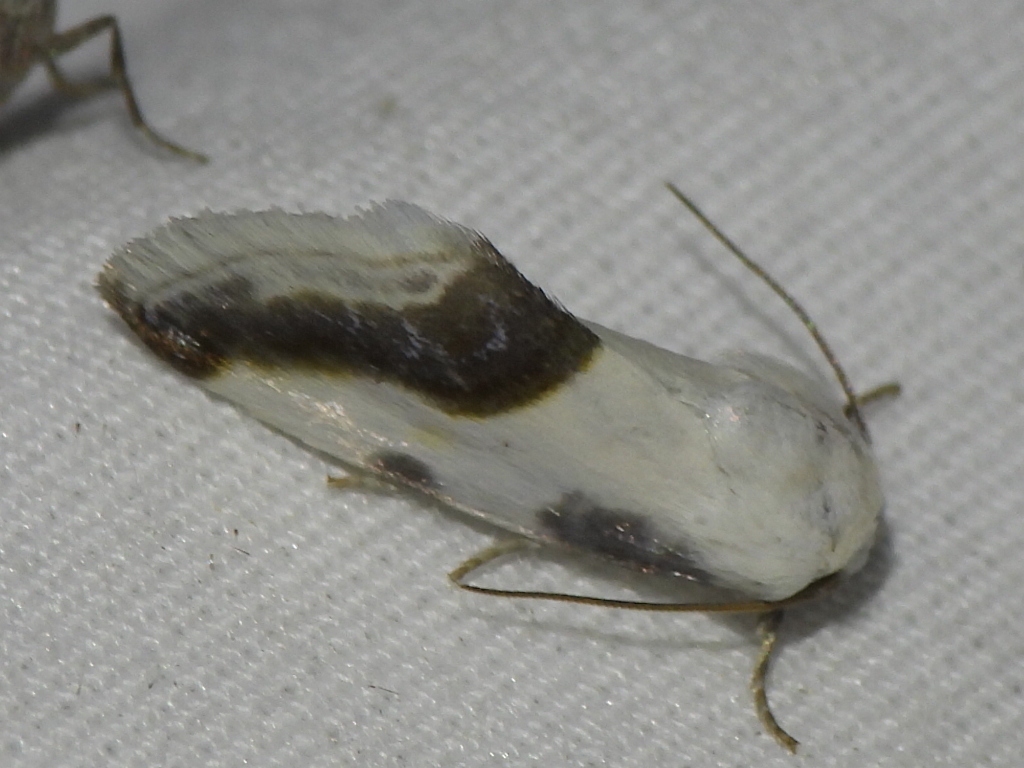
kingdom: Animalia
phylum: Arthropoda
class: Insecta
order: Lepidoptera
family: Noctuidae
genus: Acontia
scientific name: Acontia cretata
